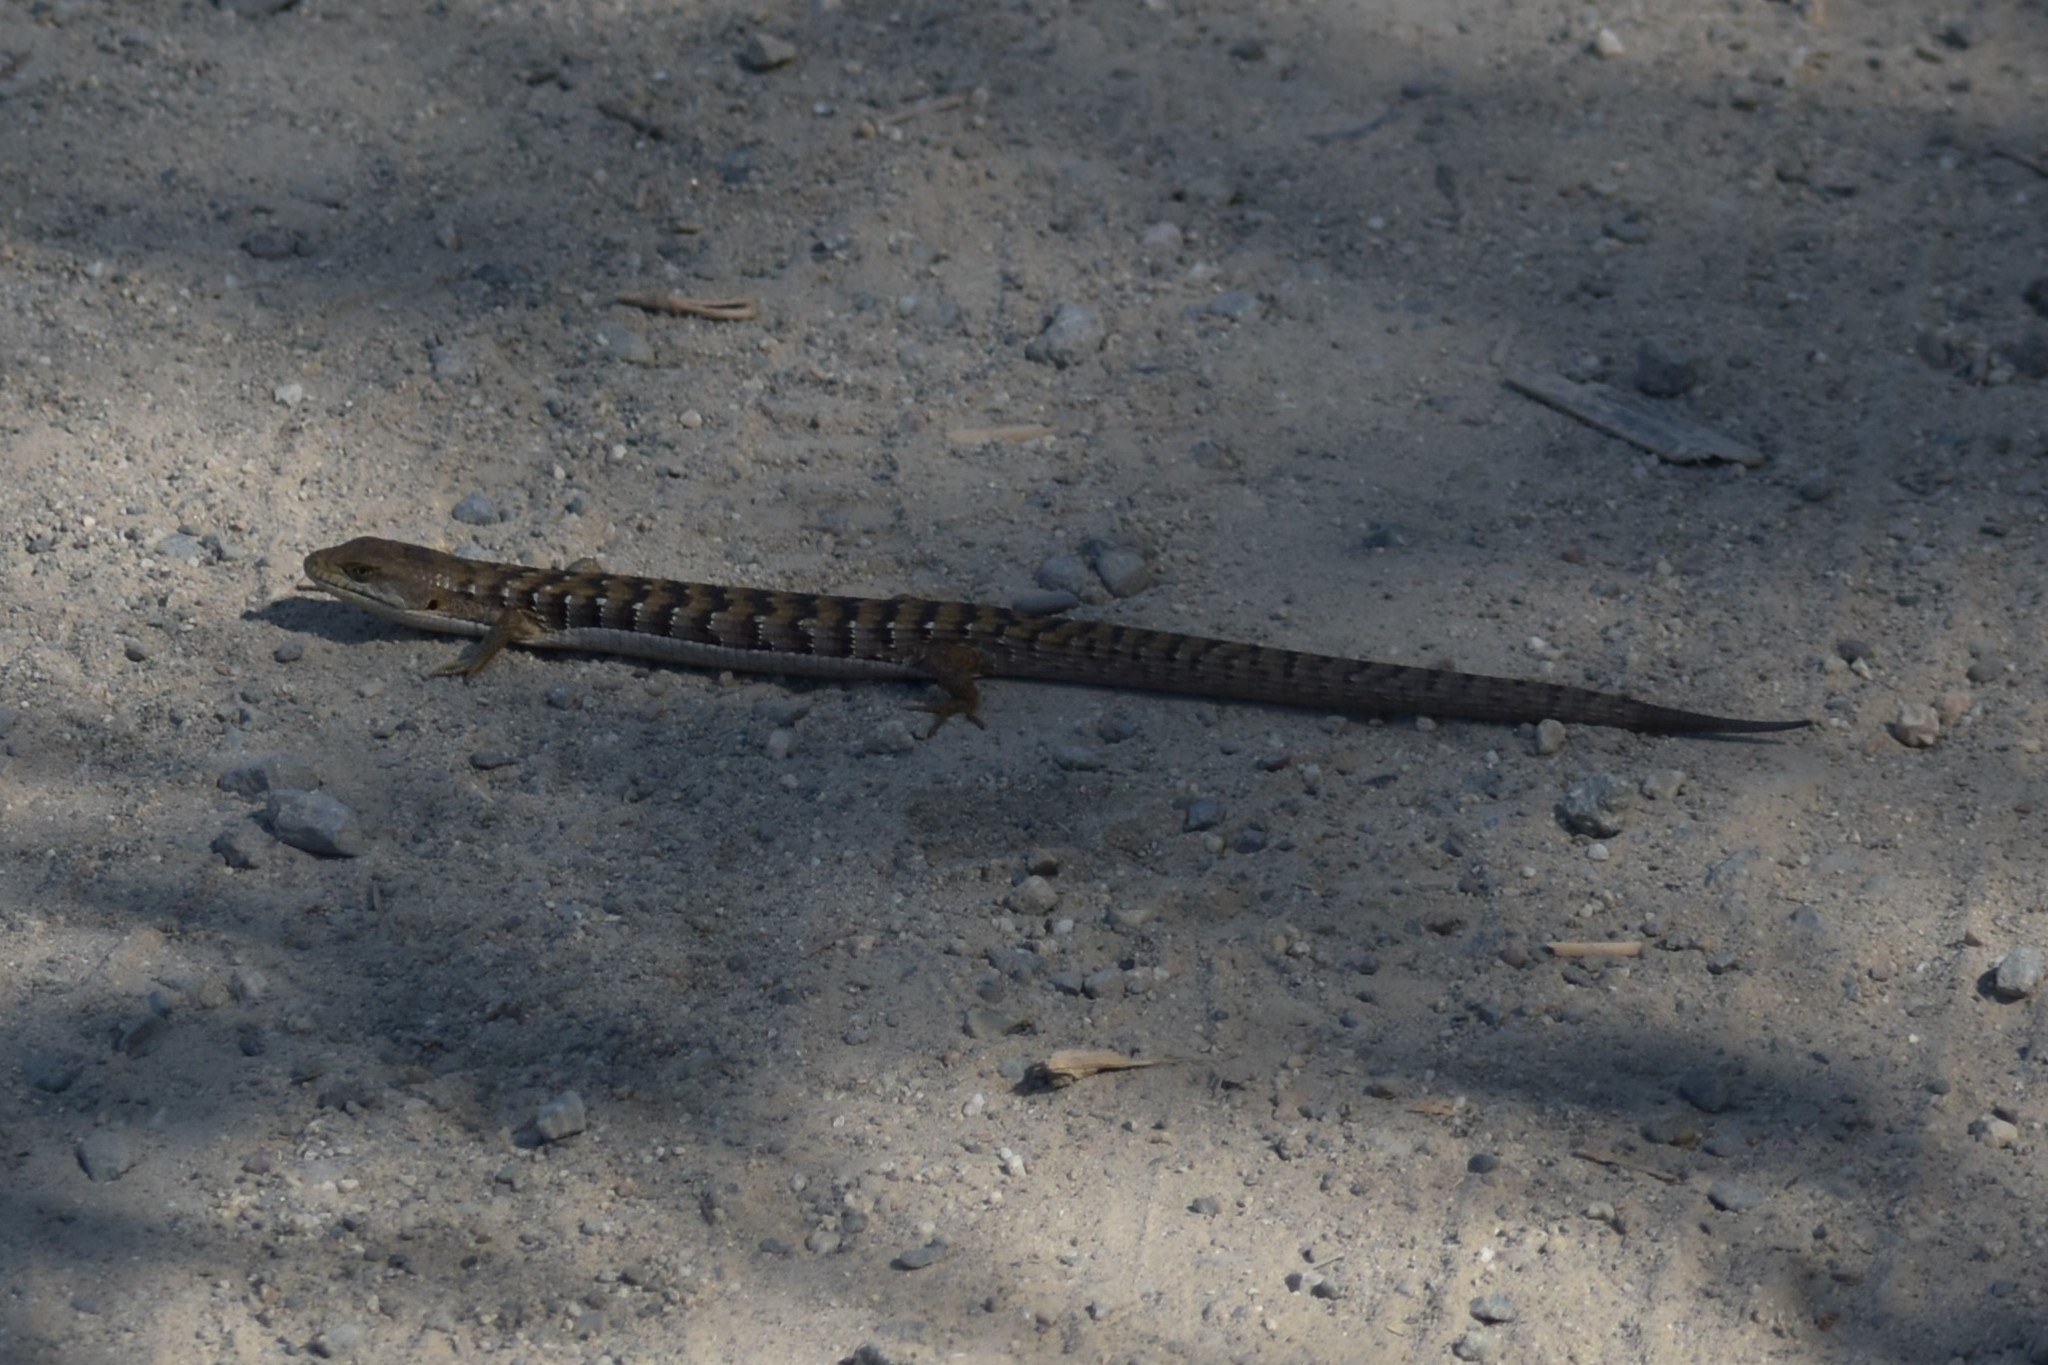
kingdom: Animalia
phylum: Chordata
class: Squamata
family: Anguidae
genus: Elgaria
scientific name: Elgaria multicarinata
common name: Southern alligator lizard
